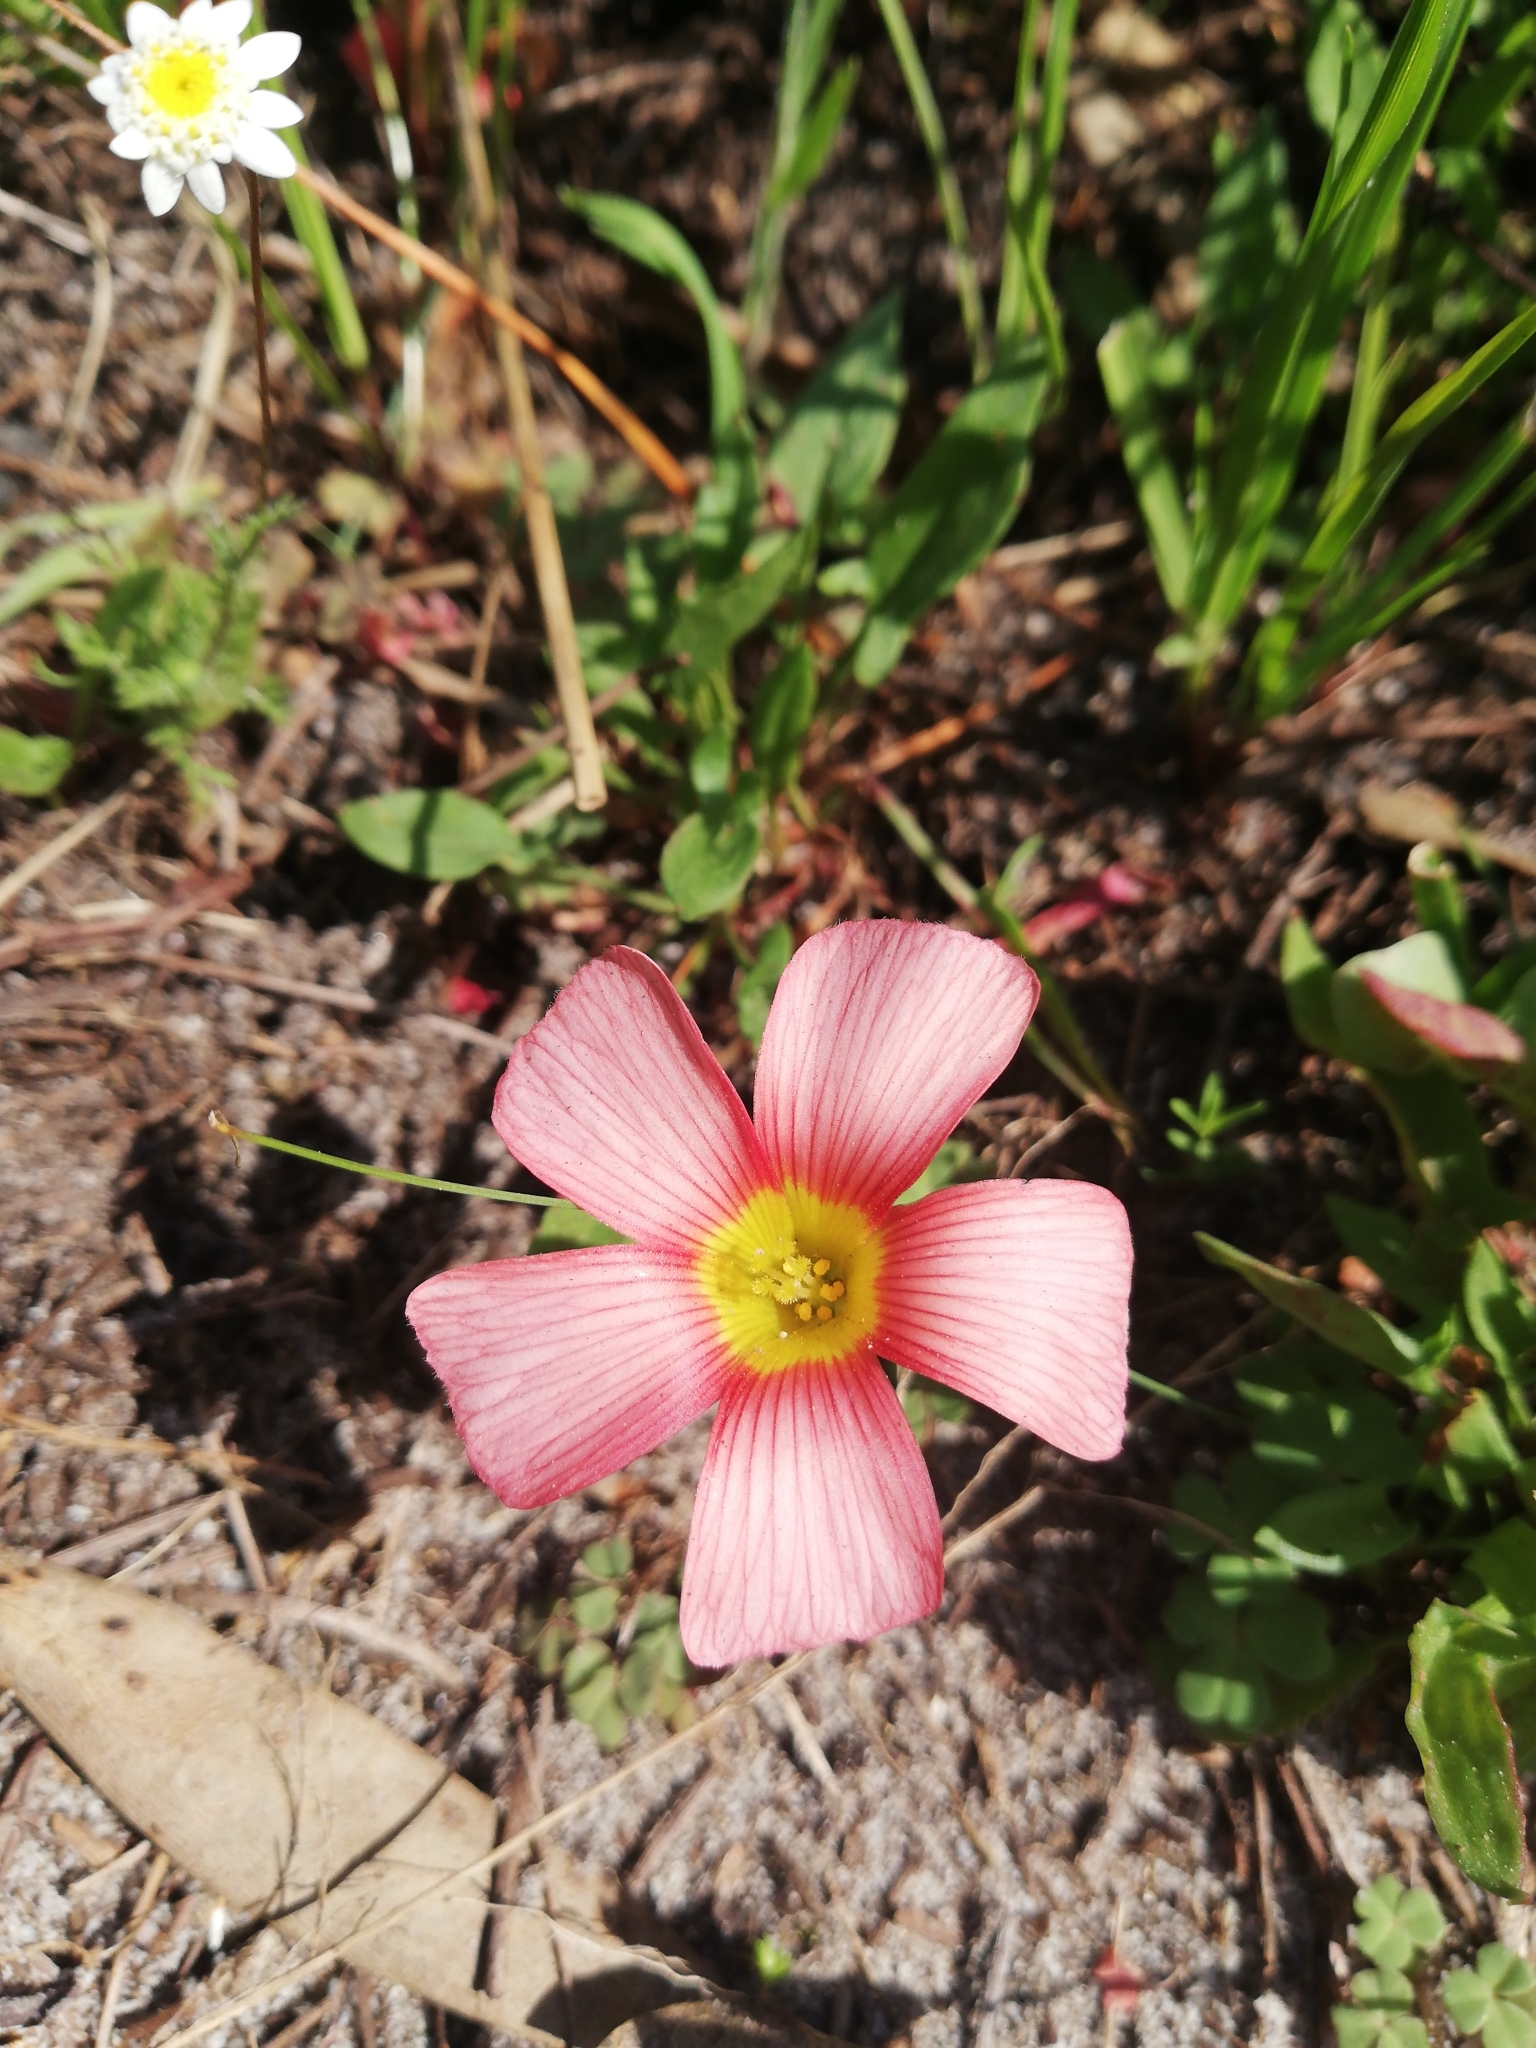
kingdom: Plantae
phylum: Tracheophyta
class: Magnoliopsida
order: Oxalidales
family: Oxalidaceae
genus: Oxalis
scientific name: Oxalis obtusa
